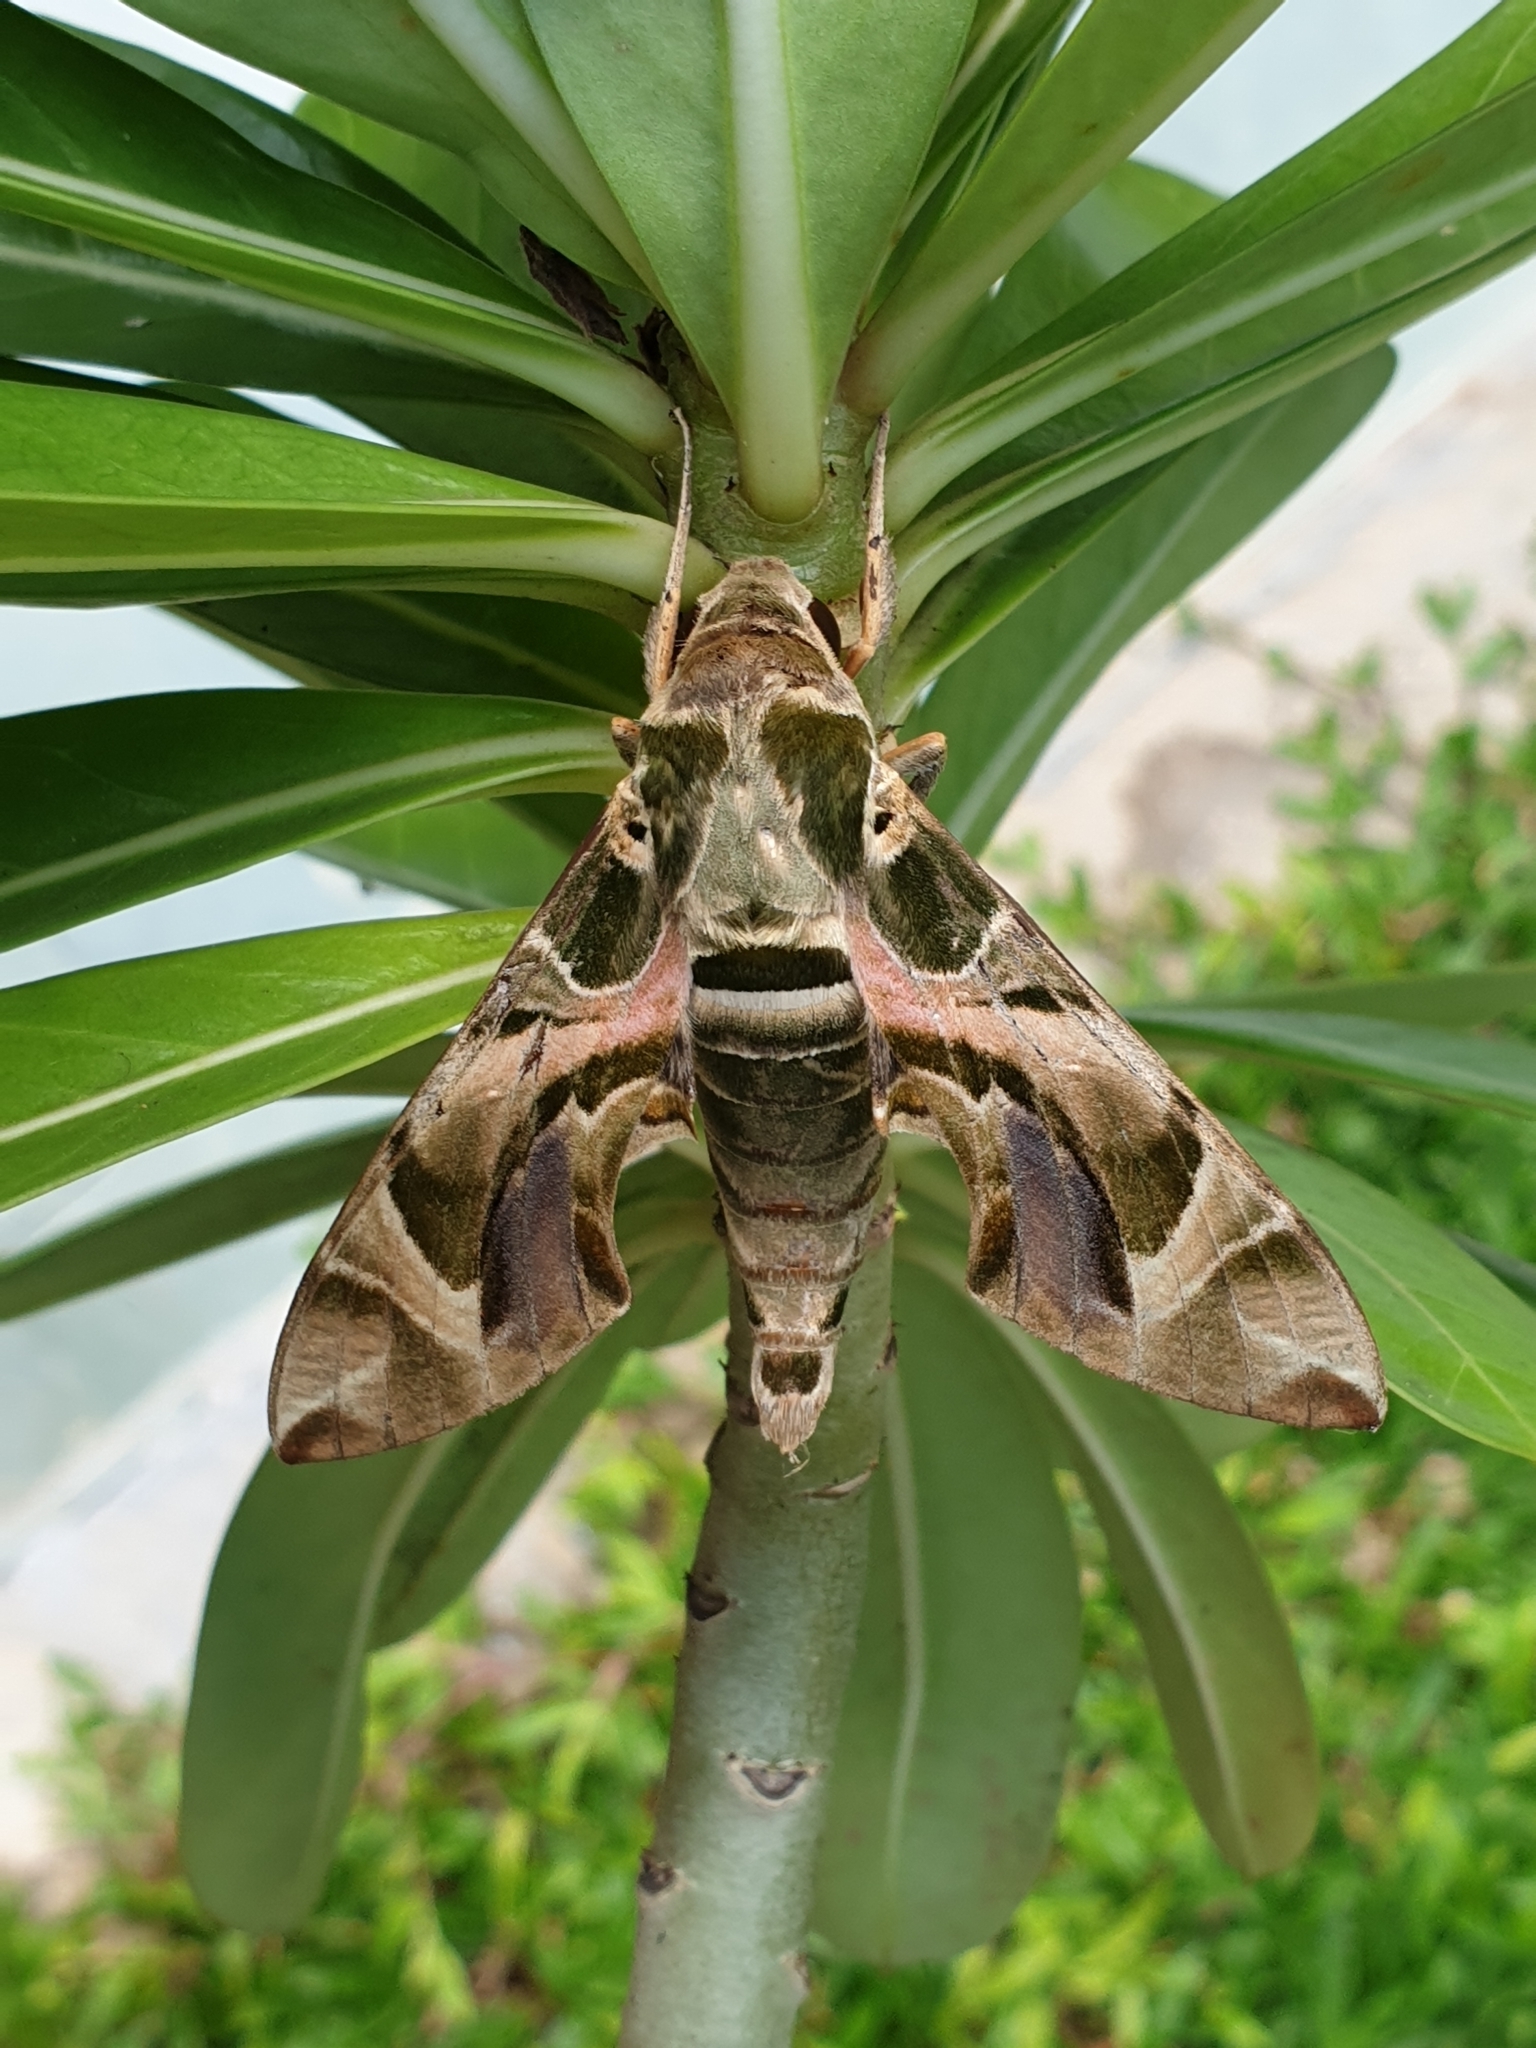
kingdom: Animalia
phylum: Arthropoda
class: Insecta
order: Lepidoptera
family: Sphingidae
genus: Daphnis
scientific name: Daphnis nerii
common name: Oleander hawk-moth
